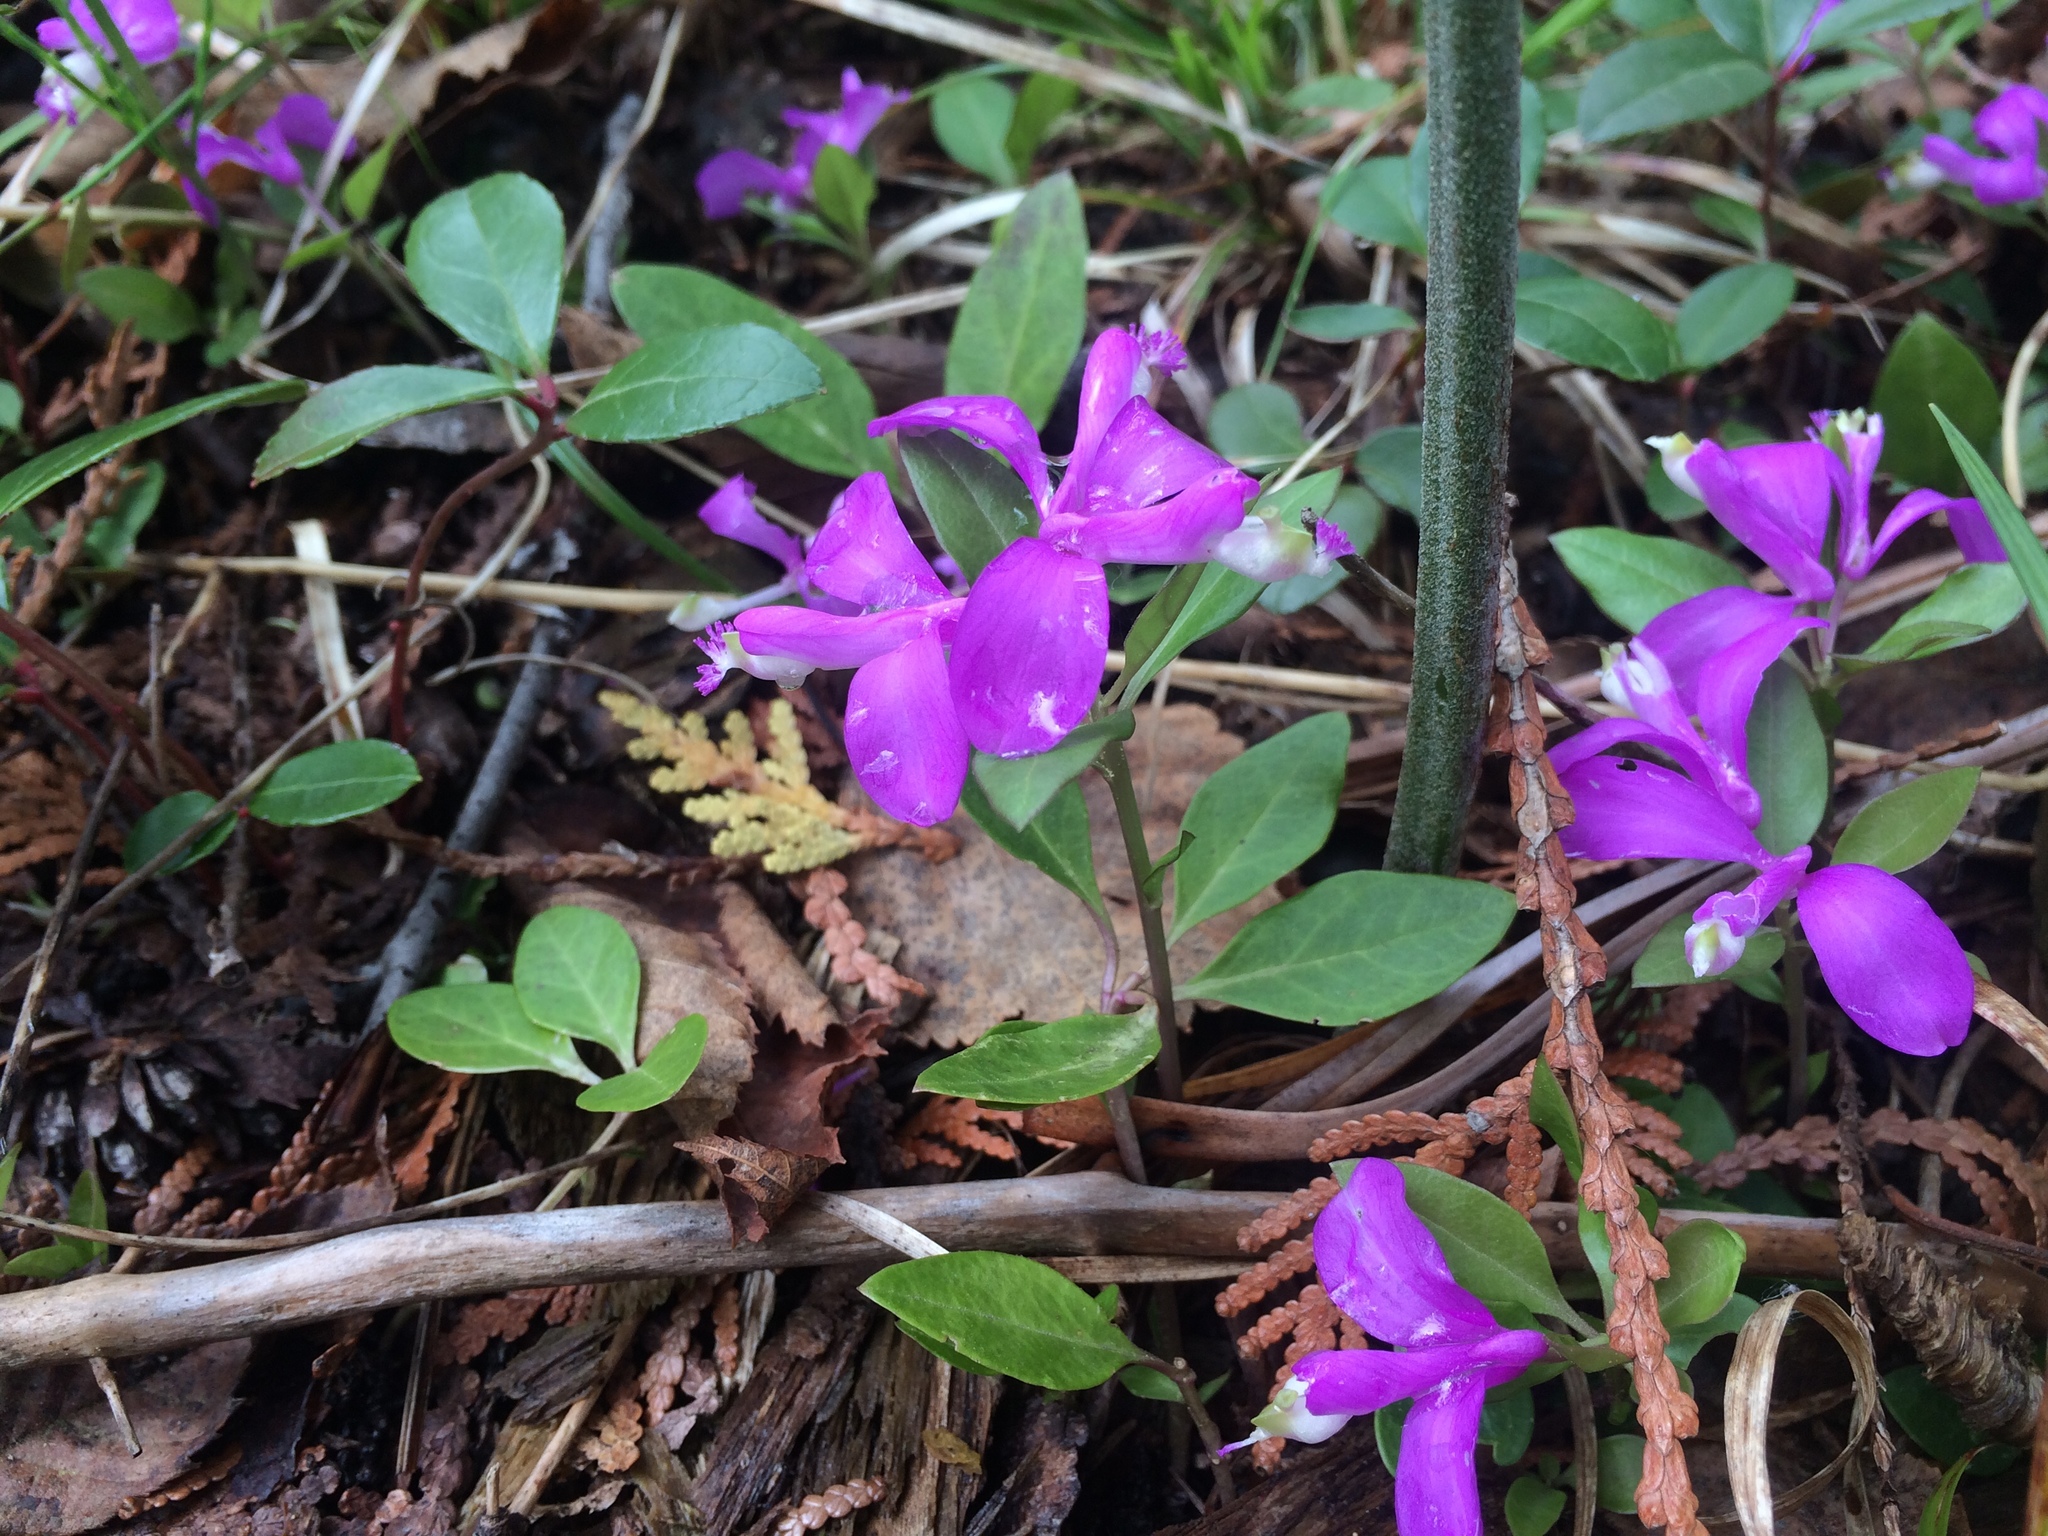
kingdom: Plantae
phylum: Tracheophyta
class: Magnoliopsida
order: Fabales
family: Polygalaceae
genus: Polygaloides
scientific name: Polygaloides paucifolia
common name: Bird-on-the-wing
